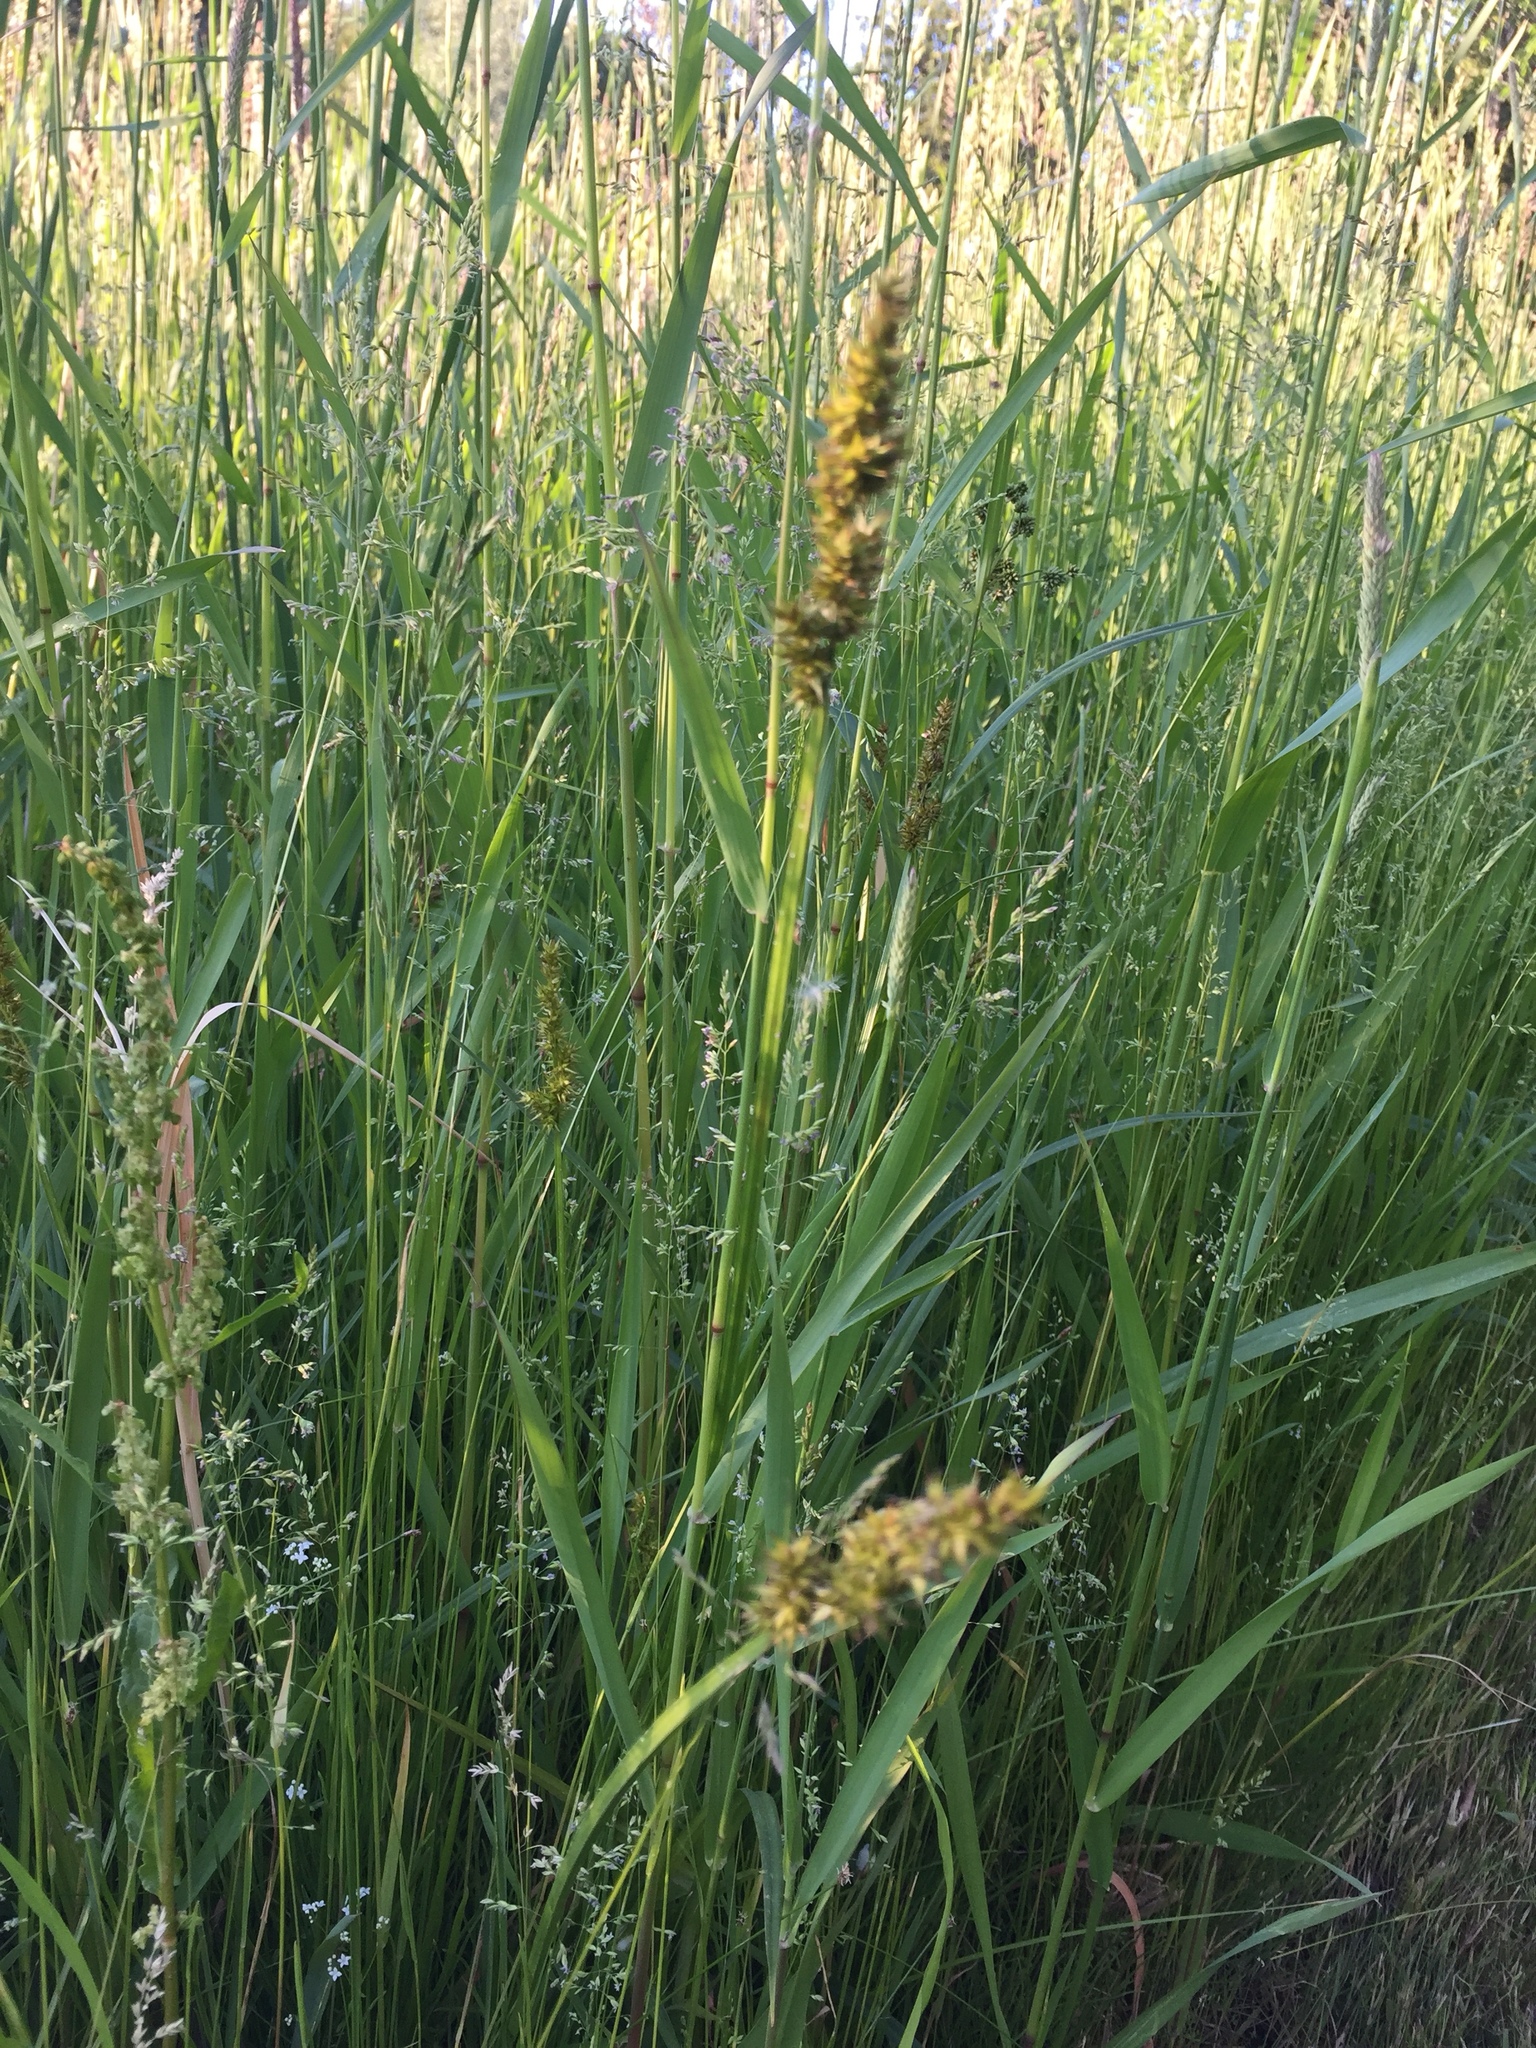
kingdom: Plantae
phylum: Tracheophyta
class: Liliopsida
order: Poales
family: Cyperaceae
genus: Carex
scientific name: Carex stipata
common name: Awl-fruited sedge
